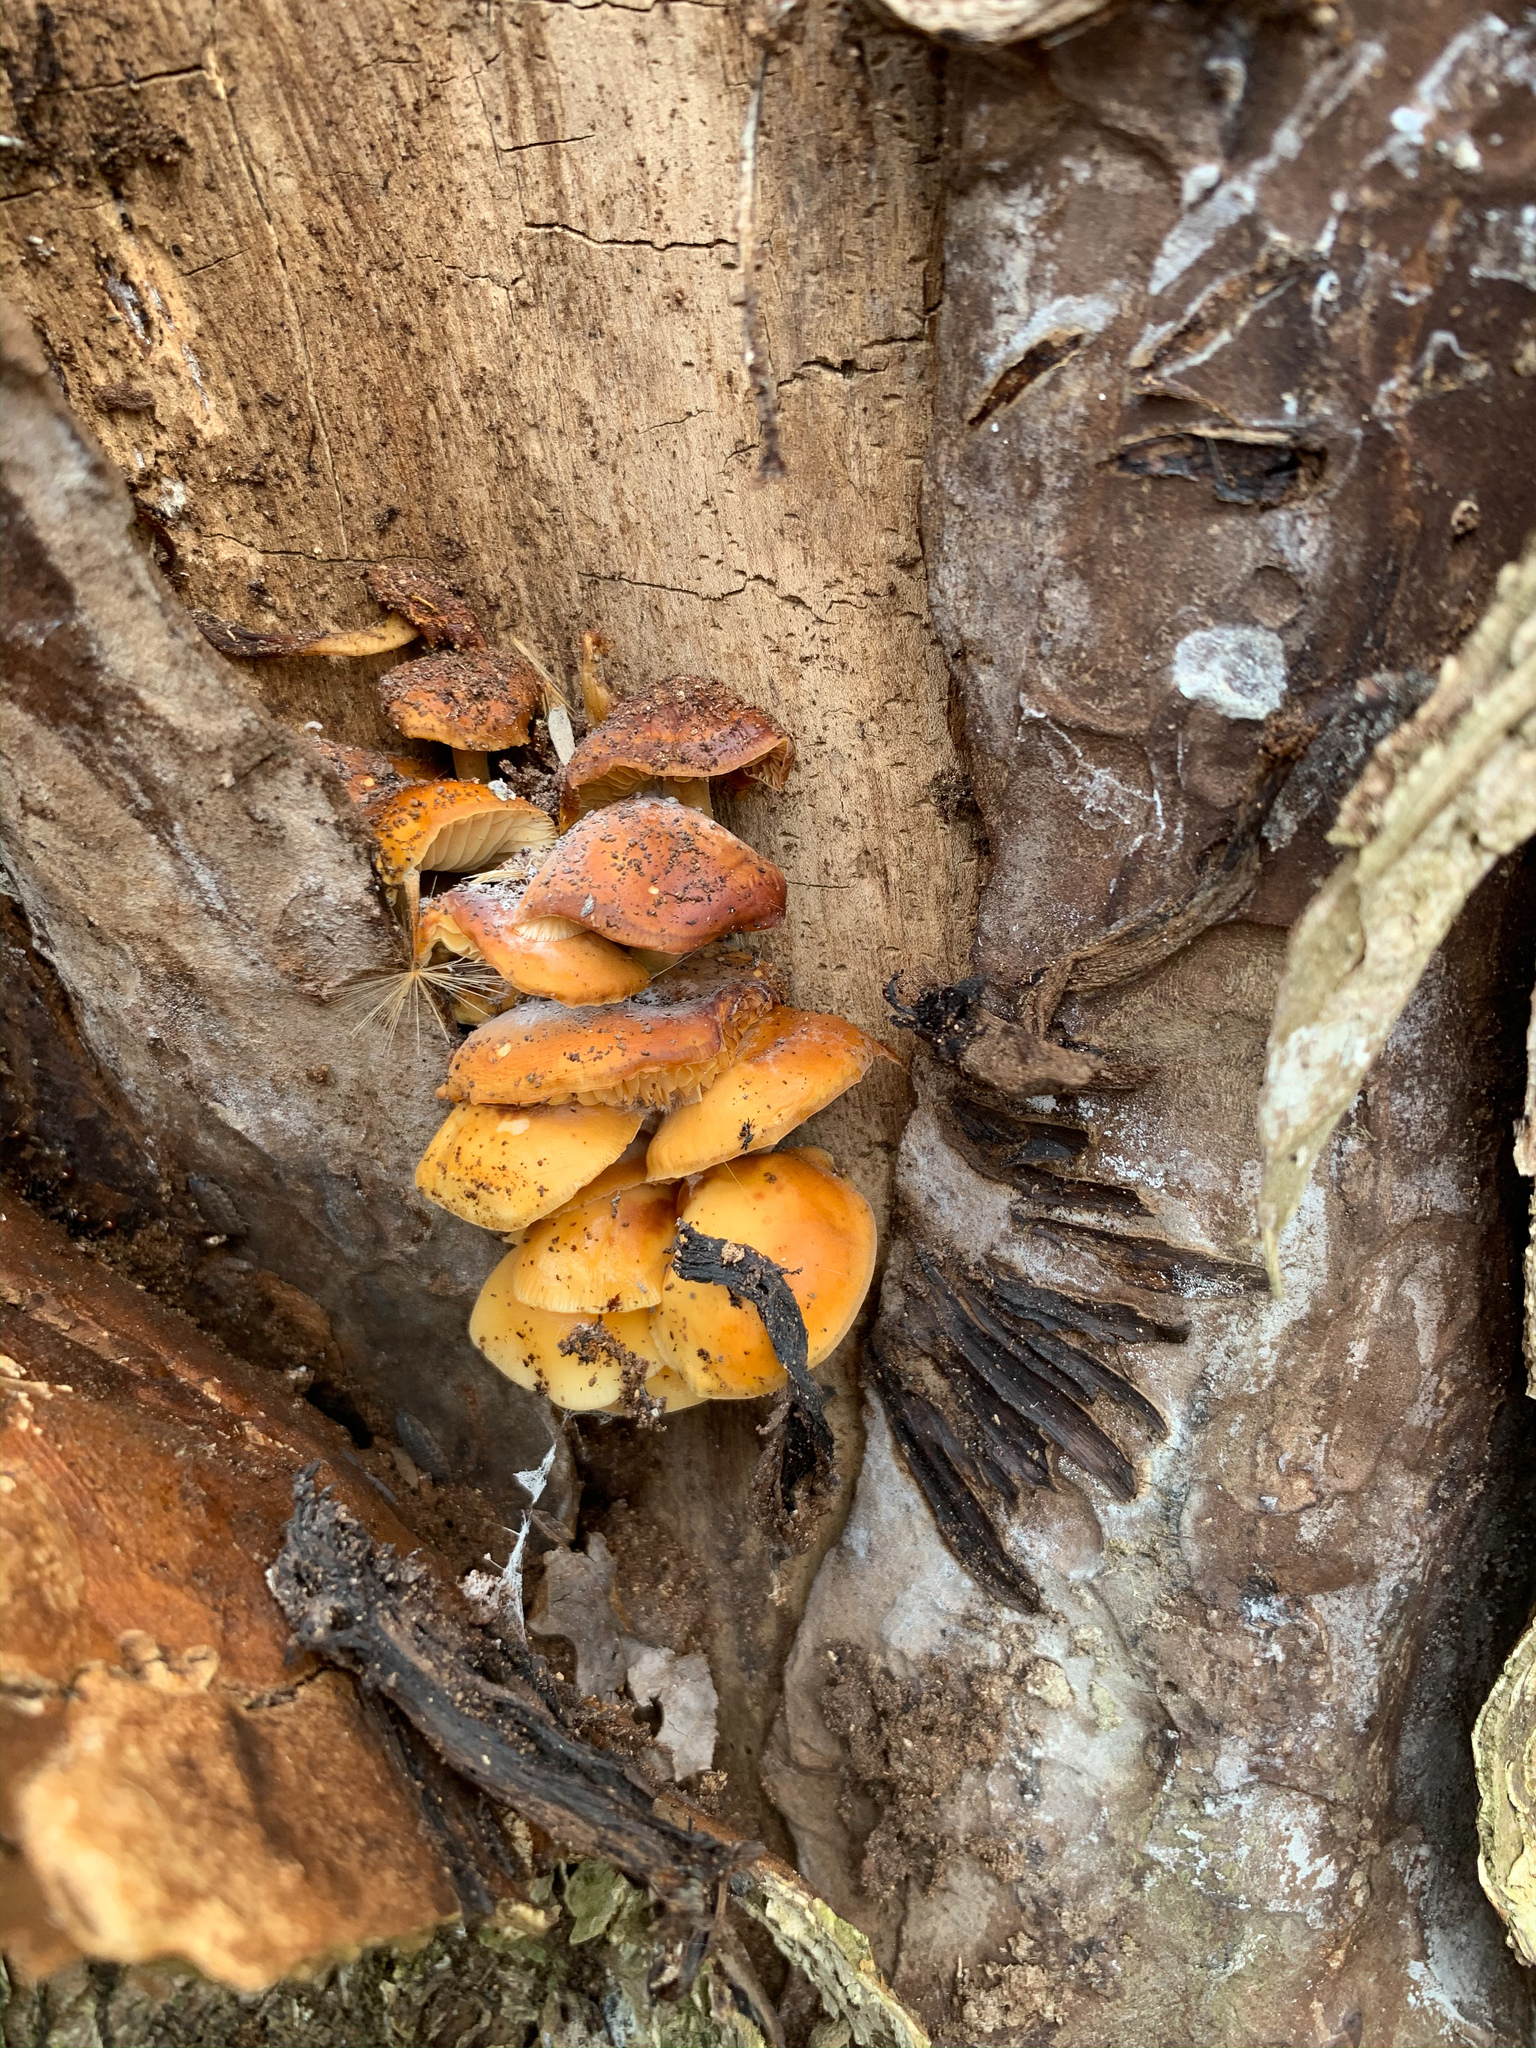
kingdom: Fungi
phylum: Basidiomycota
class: Agaricomycetes
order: Agaricales
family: Physalacriaceae
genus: Flammulina
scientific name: Flammulina velutipes
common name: Velvet shank
